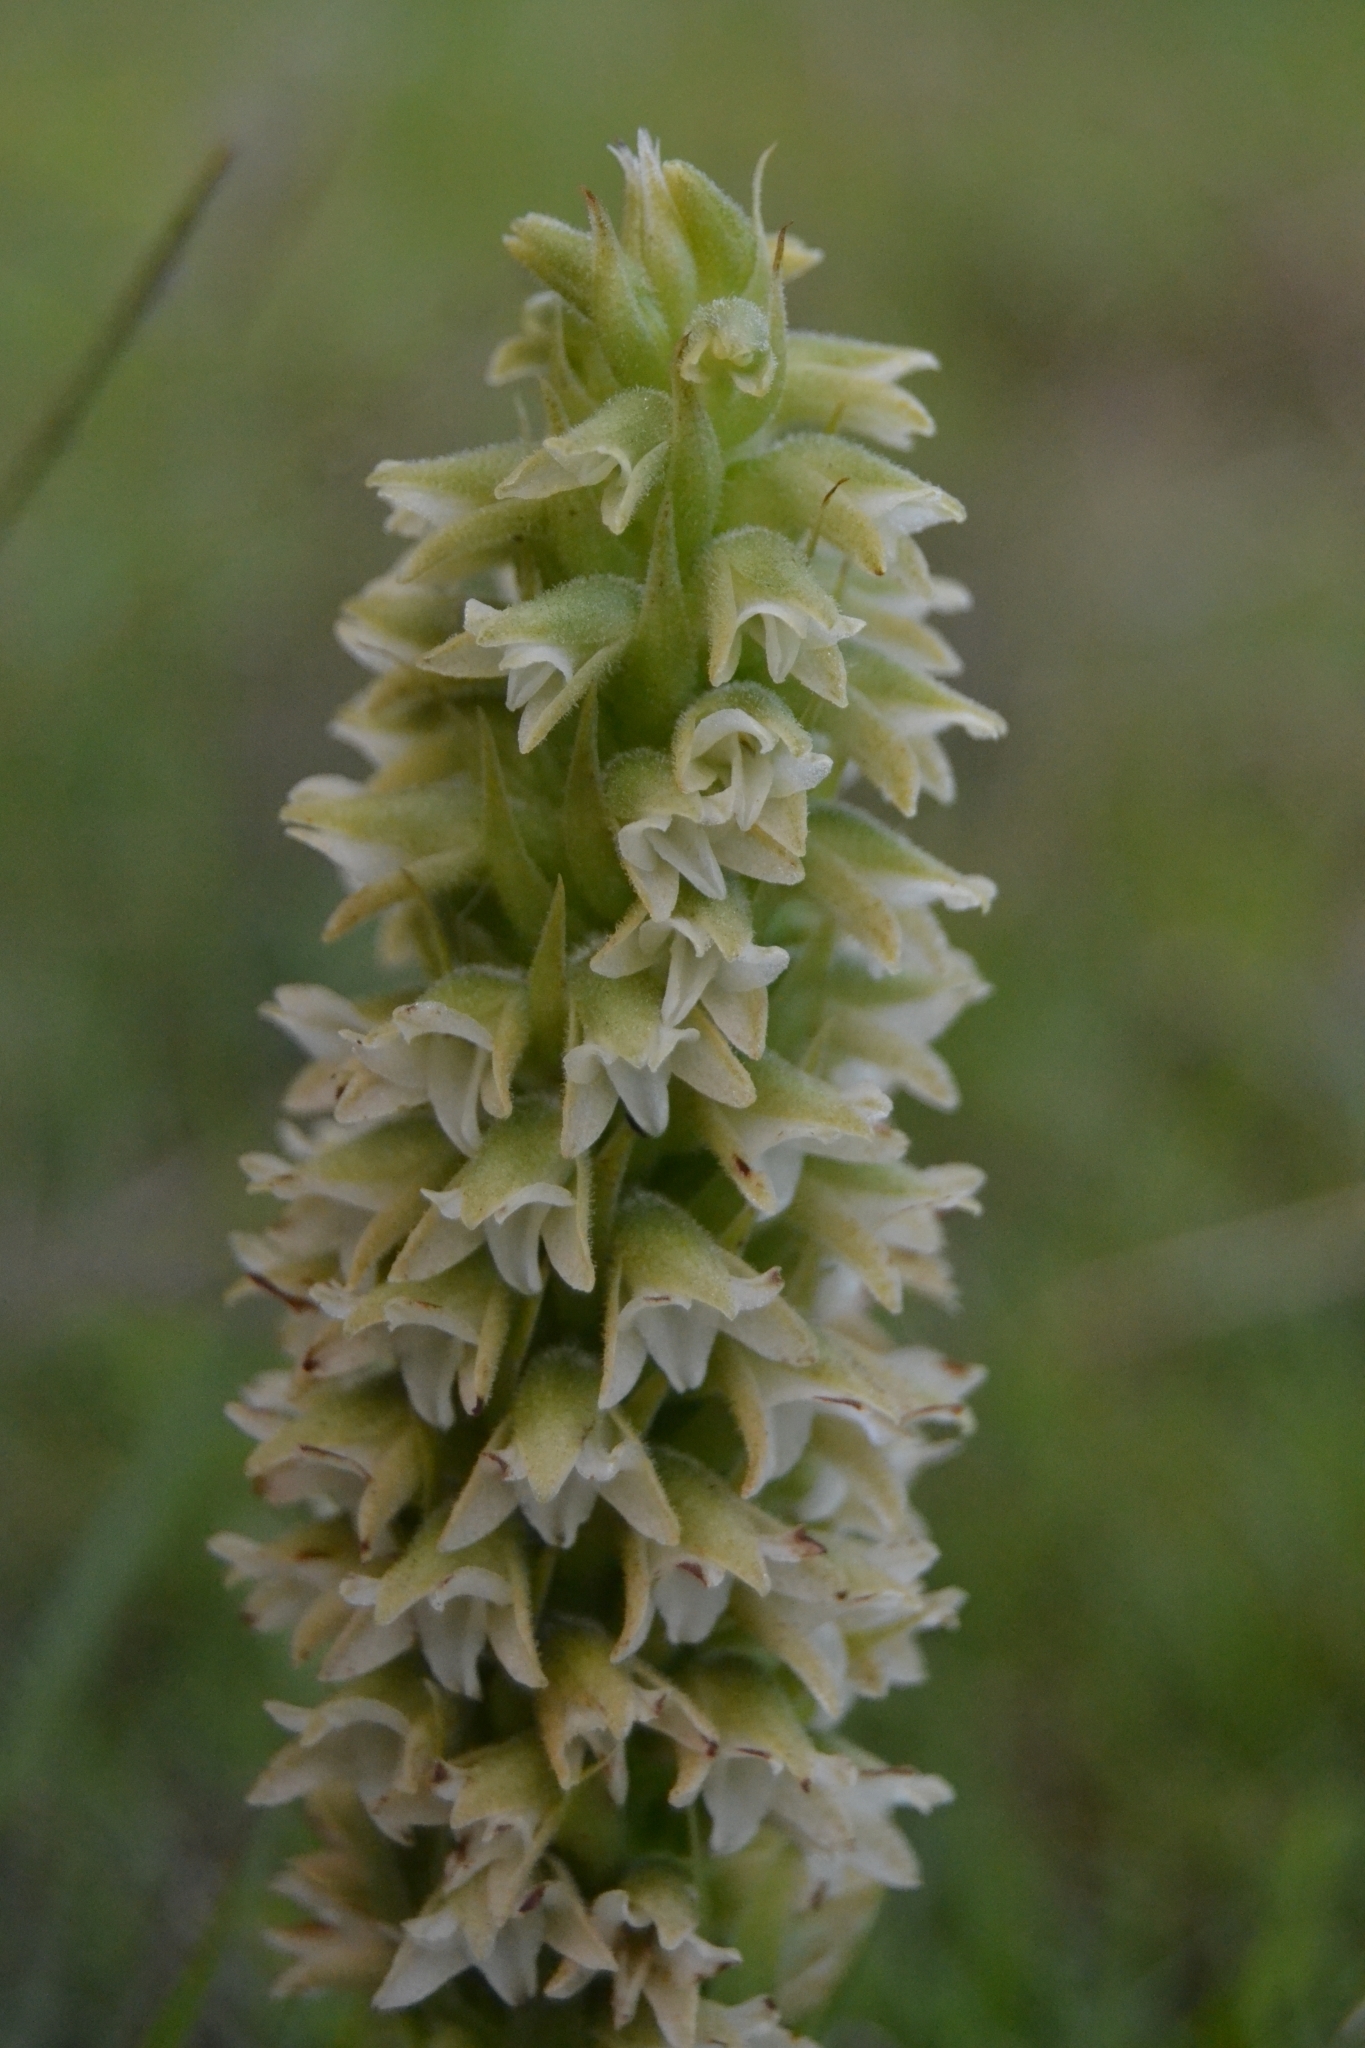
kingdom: Plantae
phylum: Tracheophyta
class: Liliopsida
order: Asparagales
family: Orchidaceae
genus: Skeptrostachys
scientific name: Skeptrostachys paraguayensis
